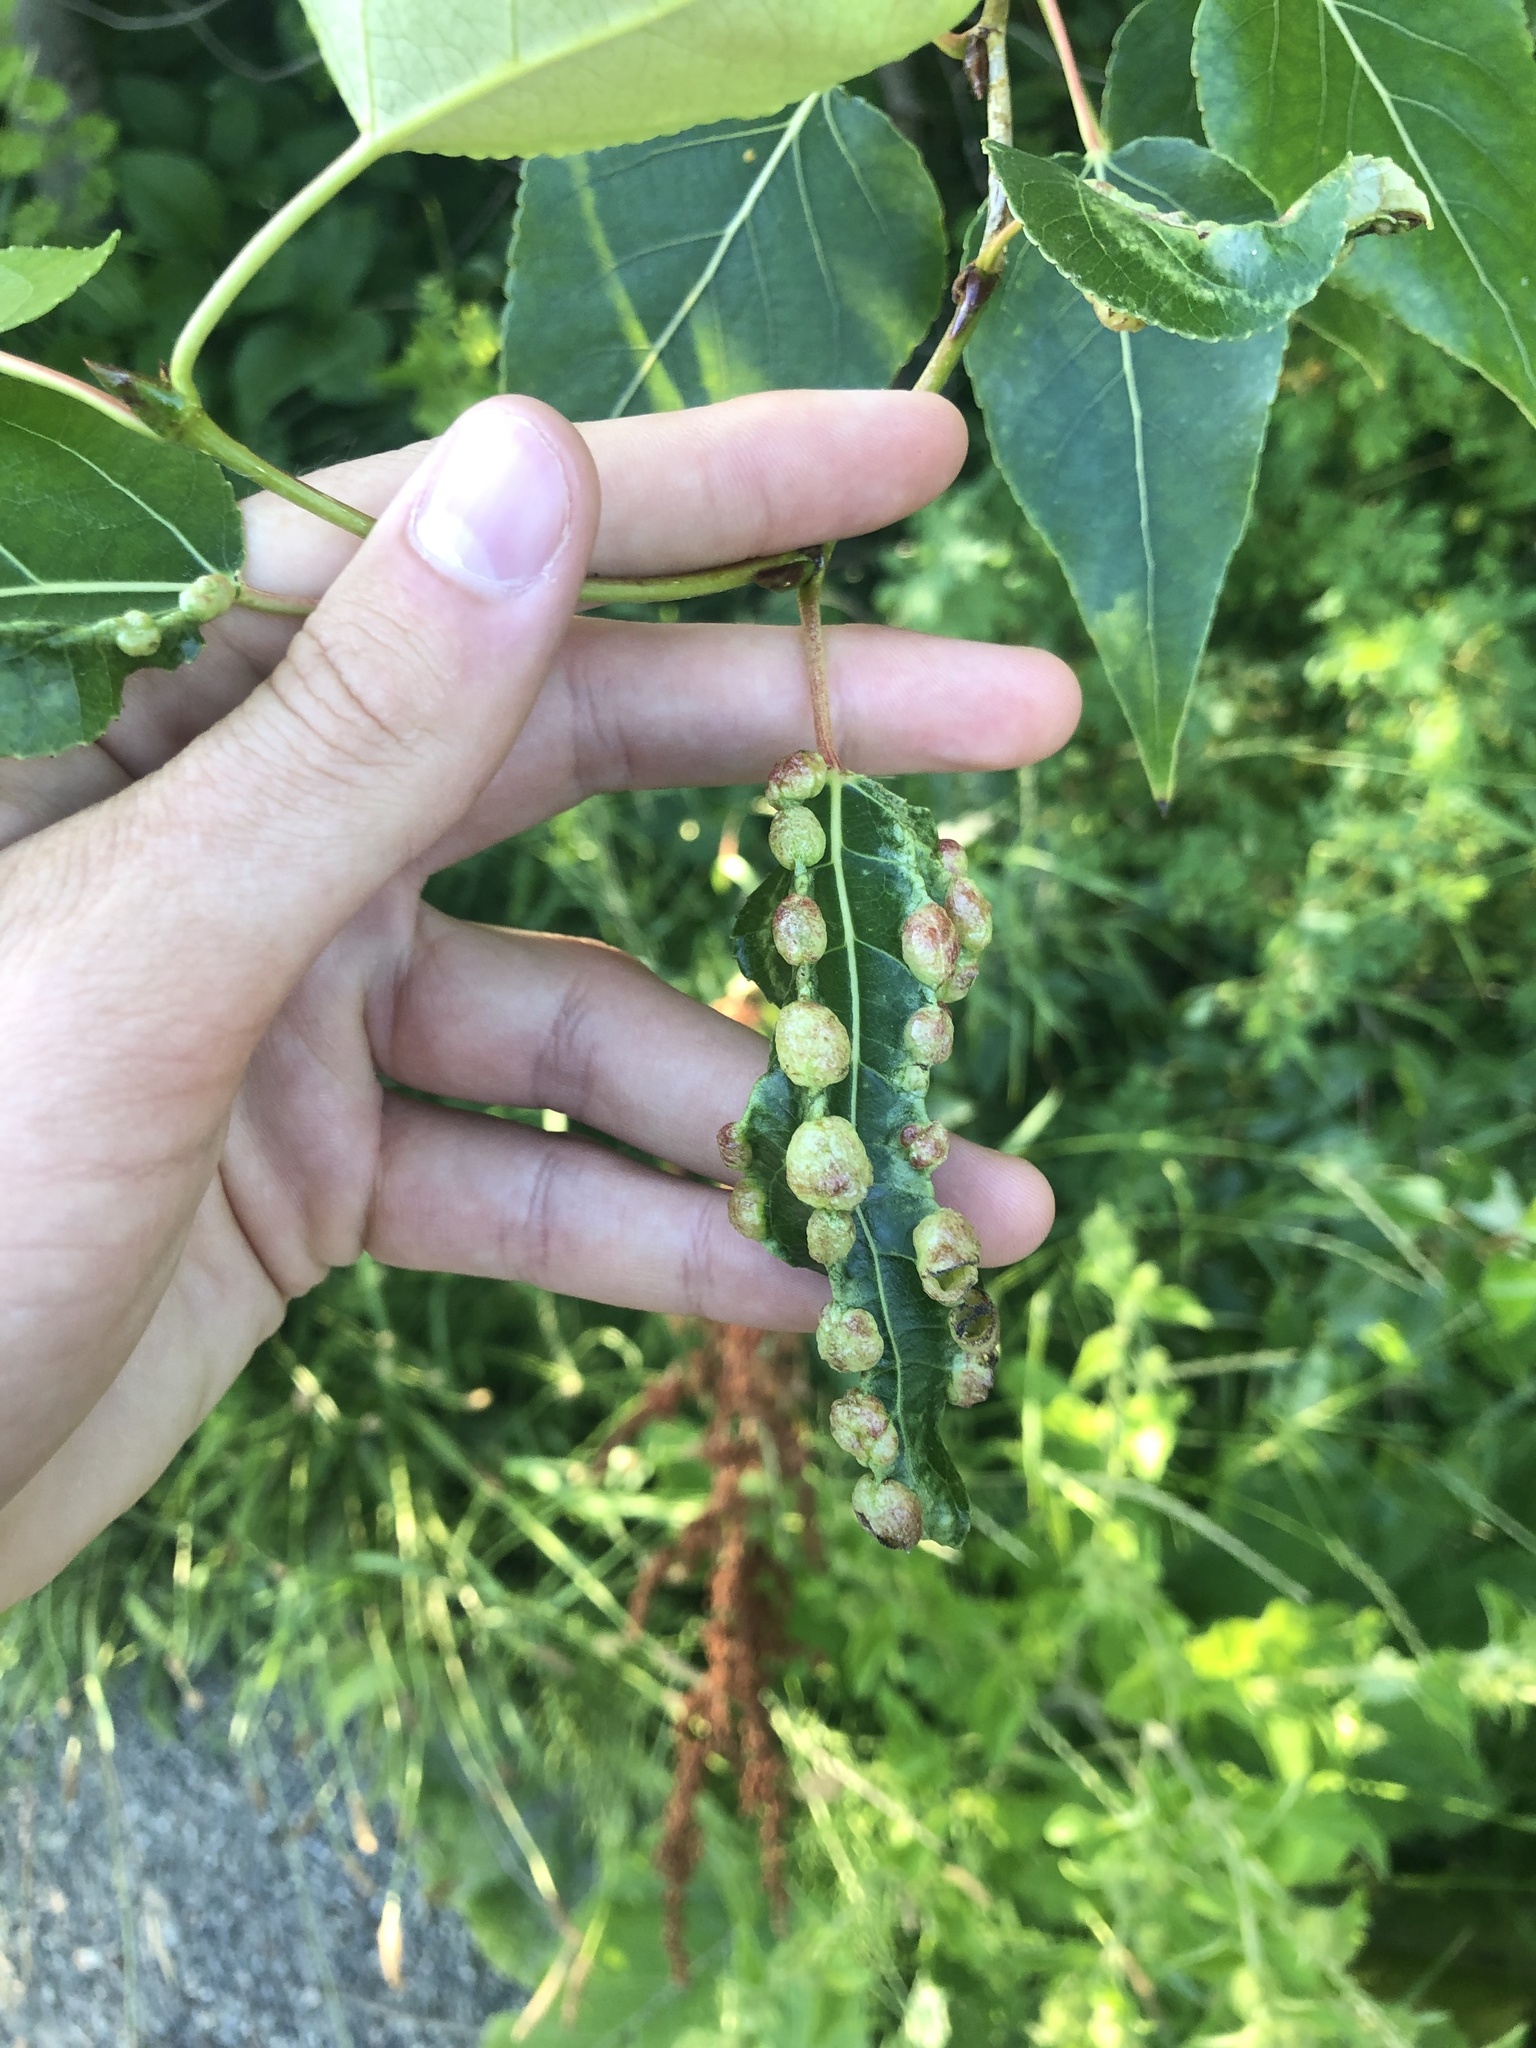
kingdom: Animalia
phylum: Arthropoda
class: Insecta
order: Hemiptera
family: Aphididae
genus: Thecabius
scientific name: Thecabius populimonilis
